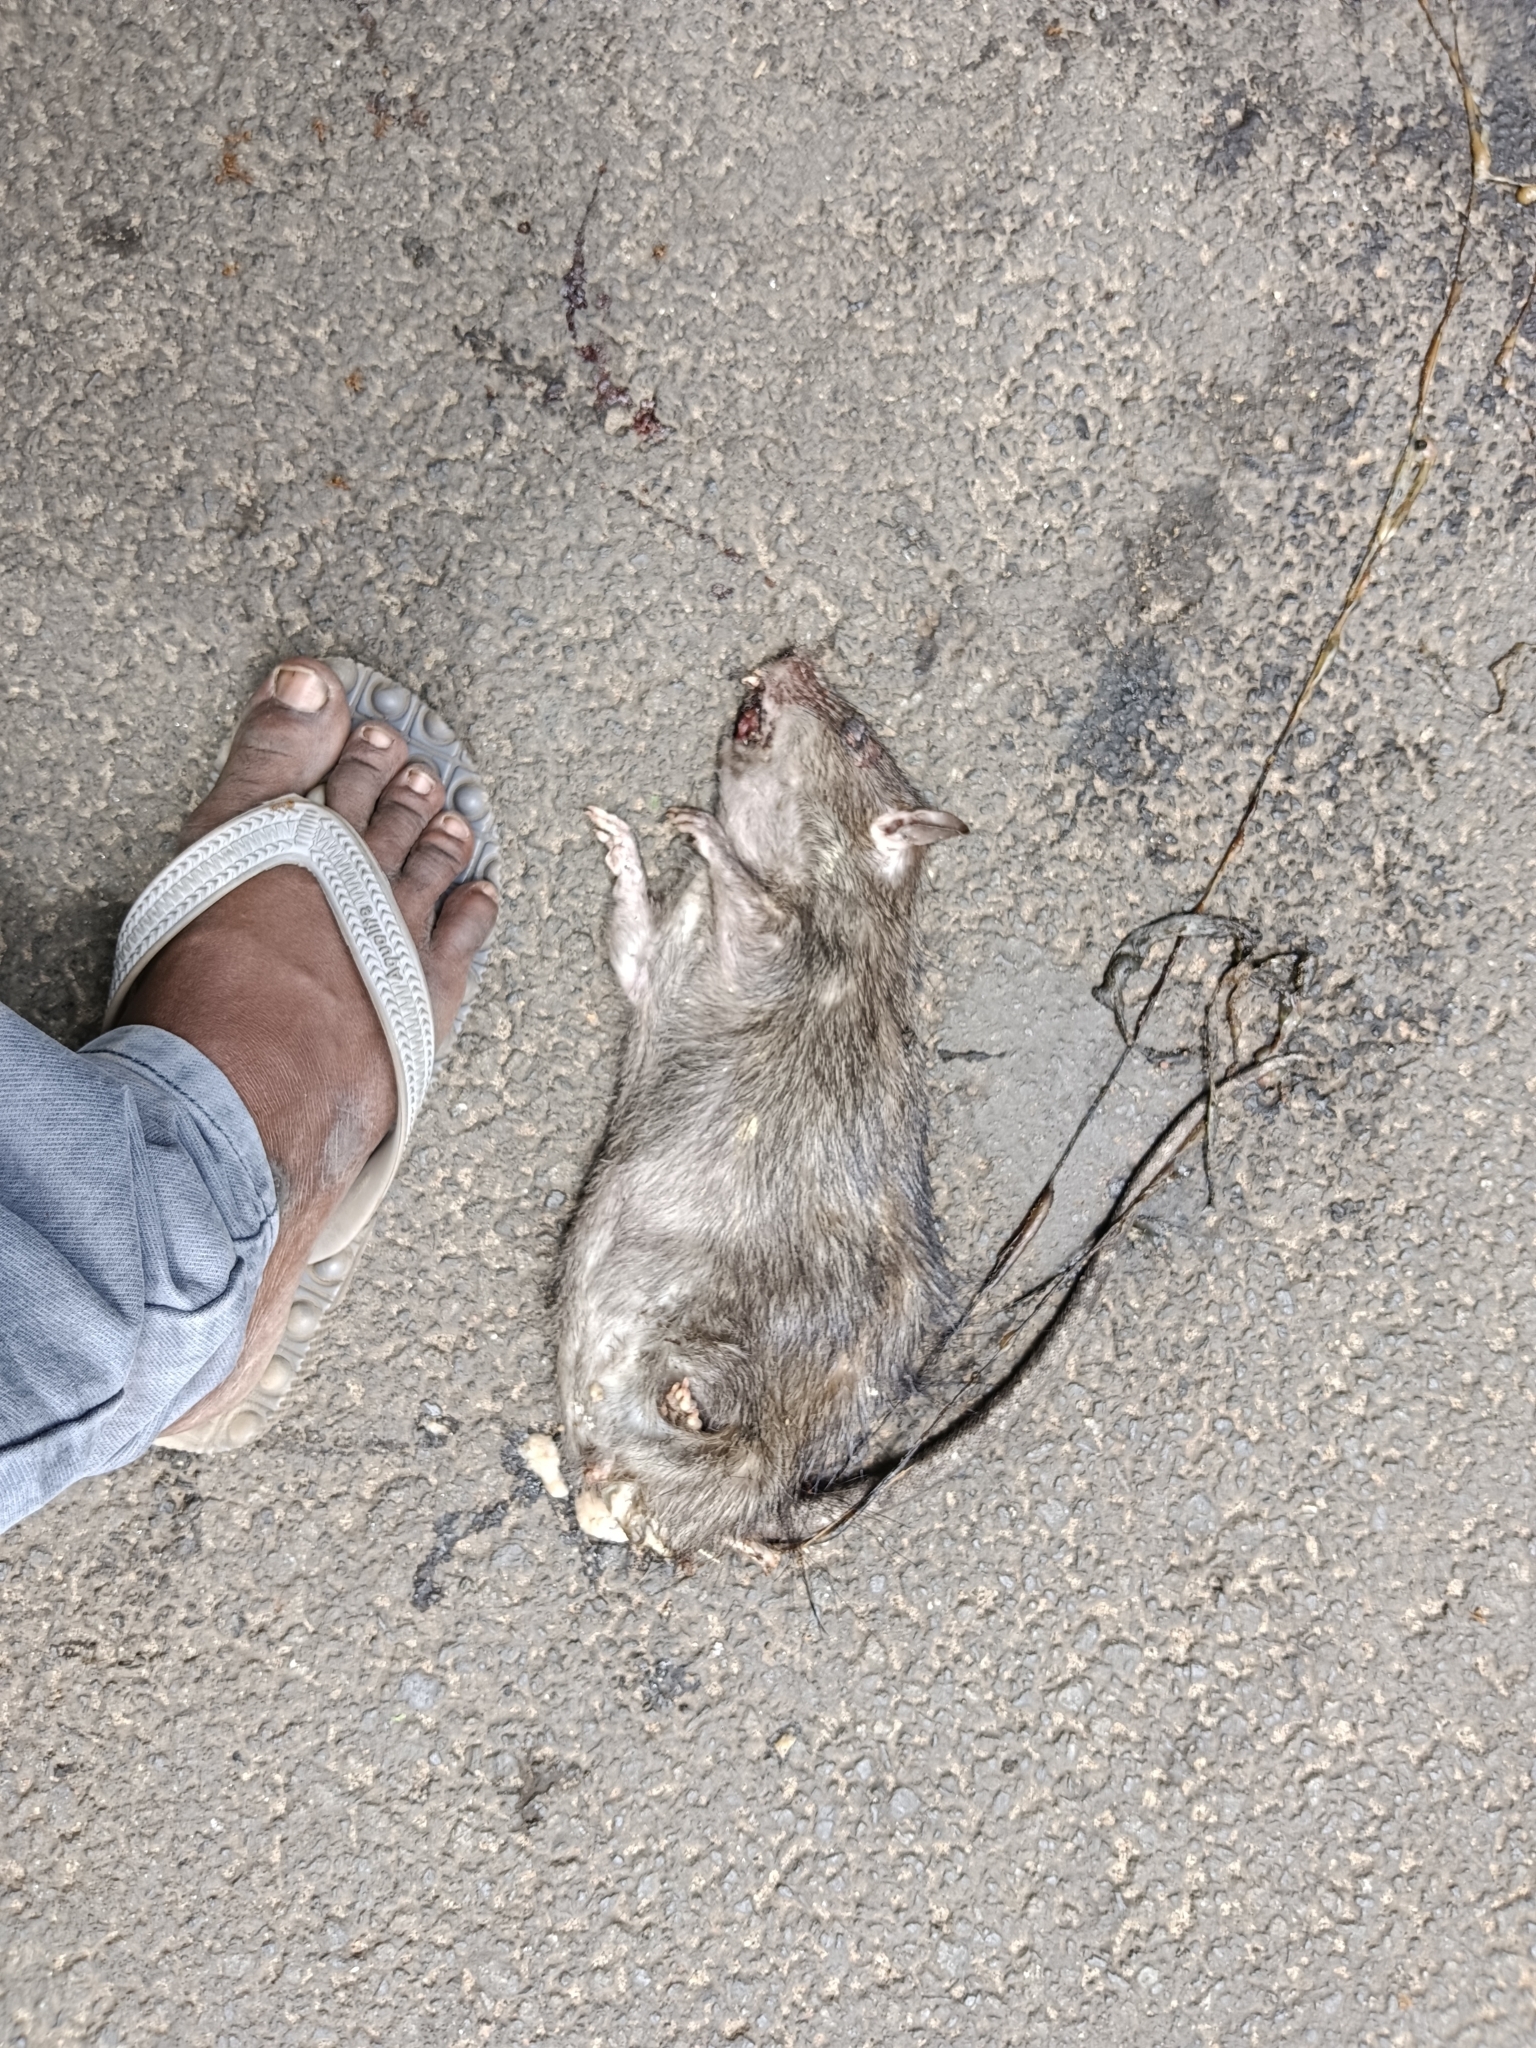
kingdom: Animalia
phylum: Chordata
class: Mammalia
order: Rodentia
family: Muridae
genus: Rattus
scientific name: Rattus norvegicus
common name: Brown rat
